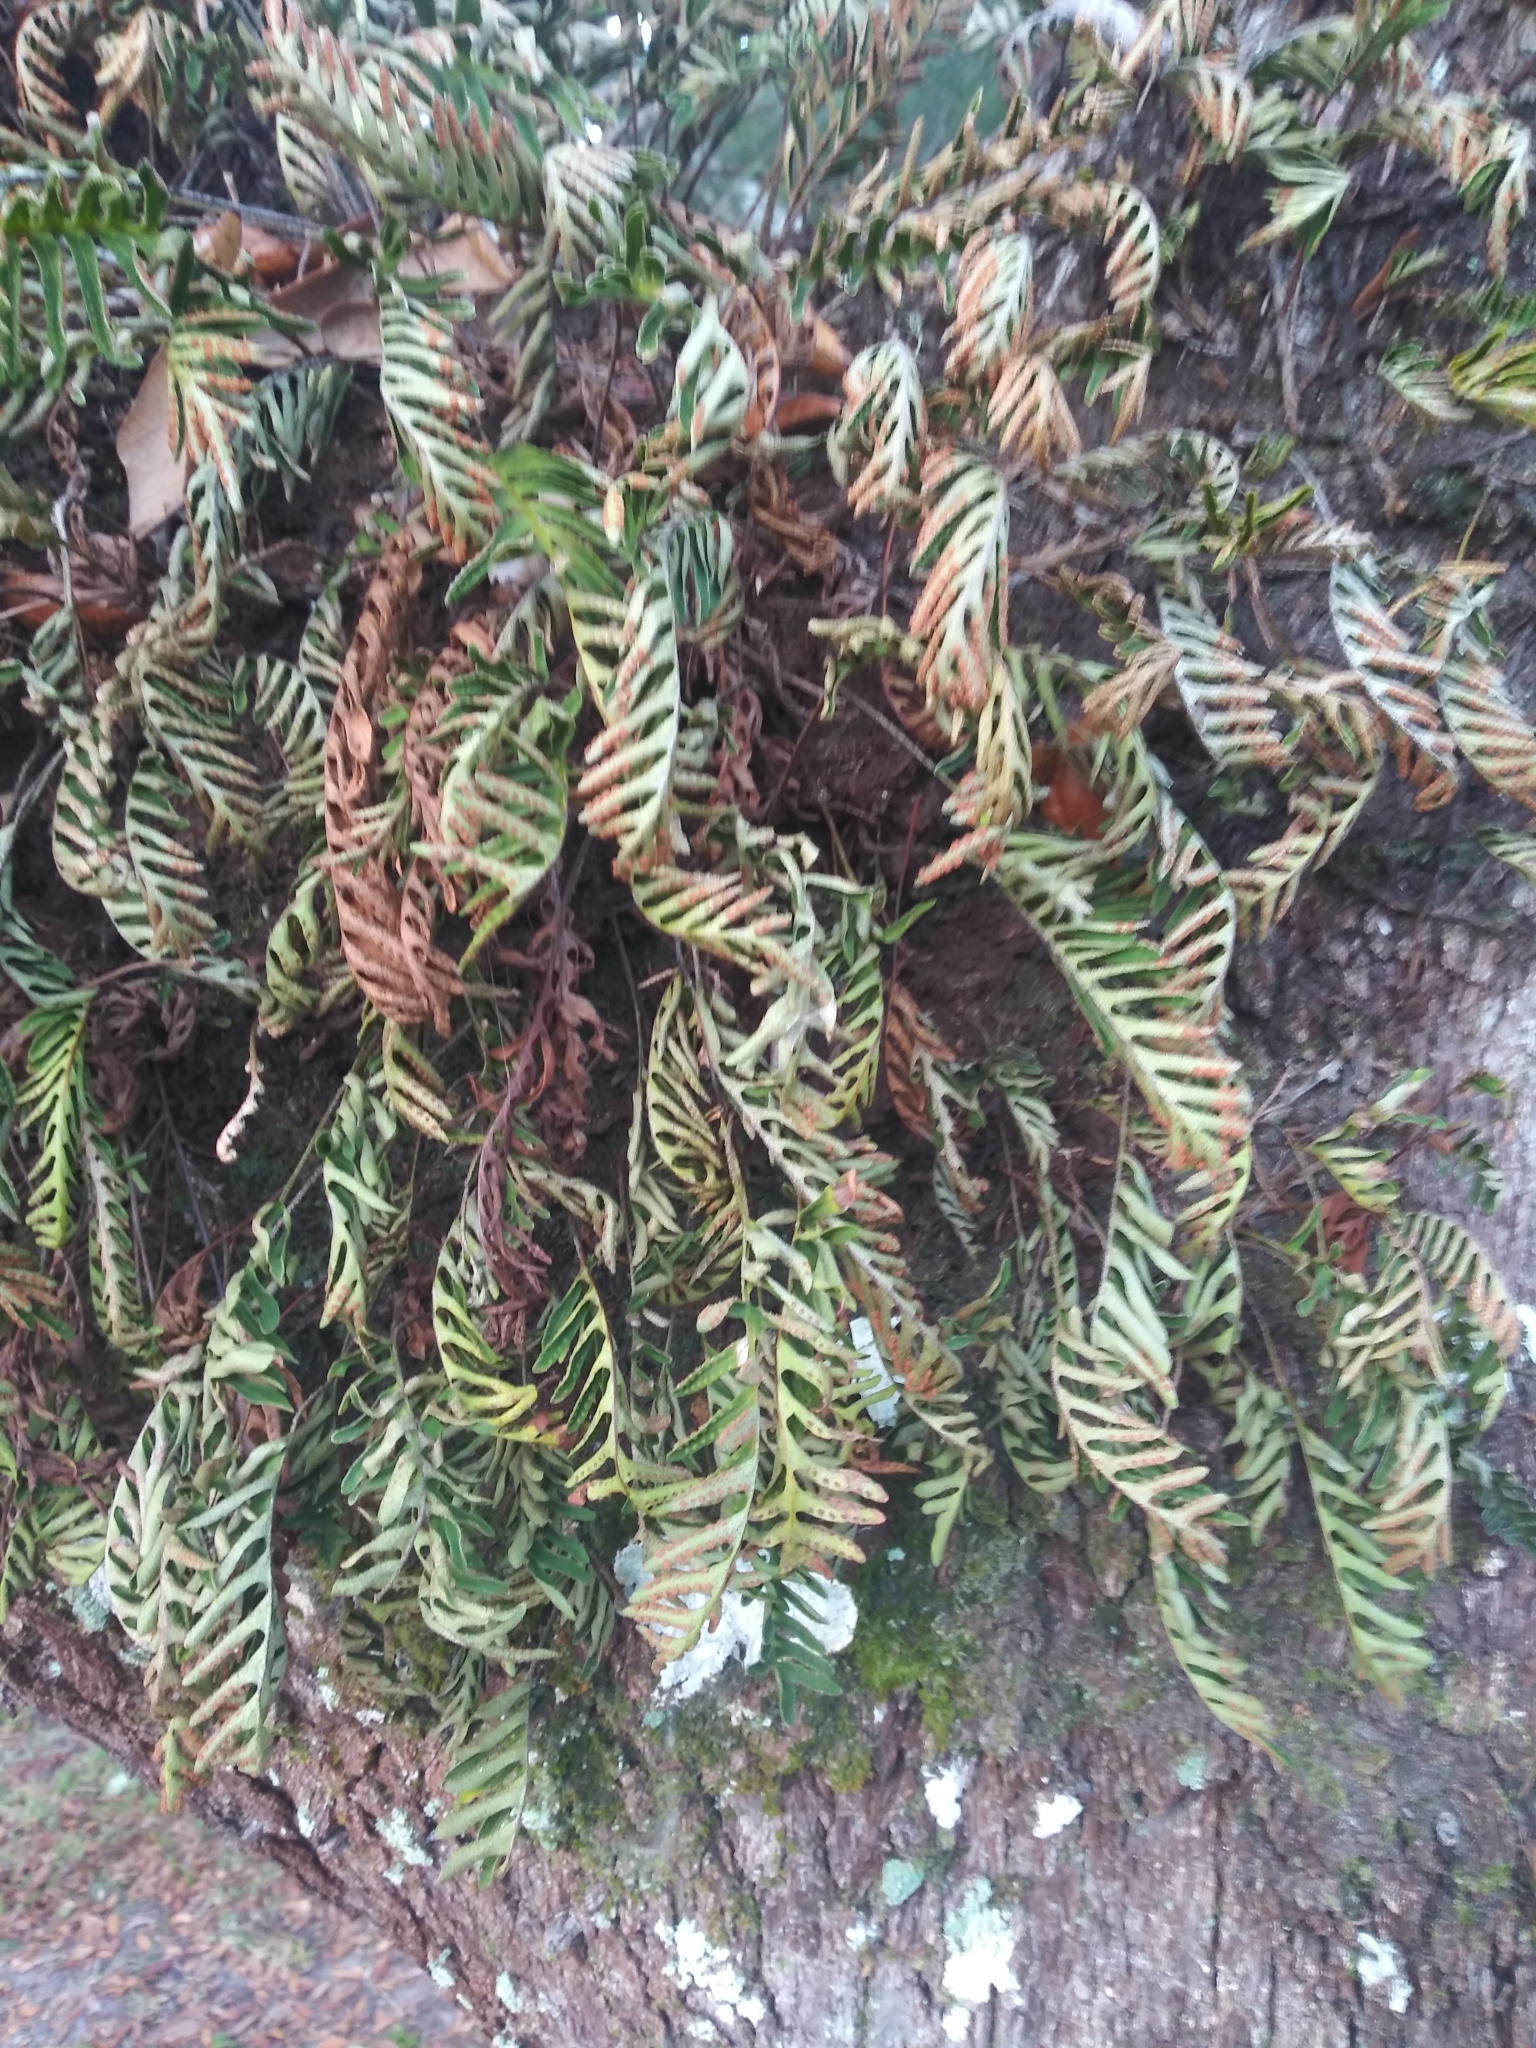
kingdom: Plantae
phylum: Tracheophyta
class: Polypodiopsida
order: Polypodiales
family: Polypodiaceae
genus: Pleopeltis
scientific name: Pleopeltis michauxiana
